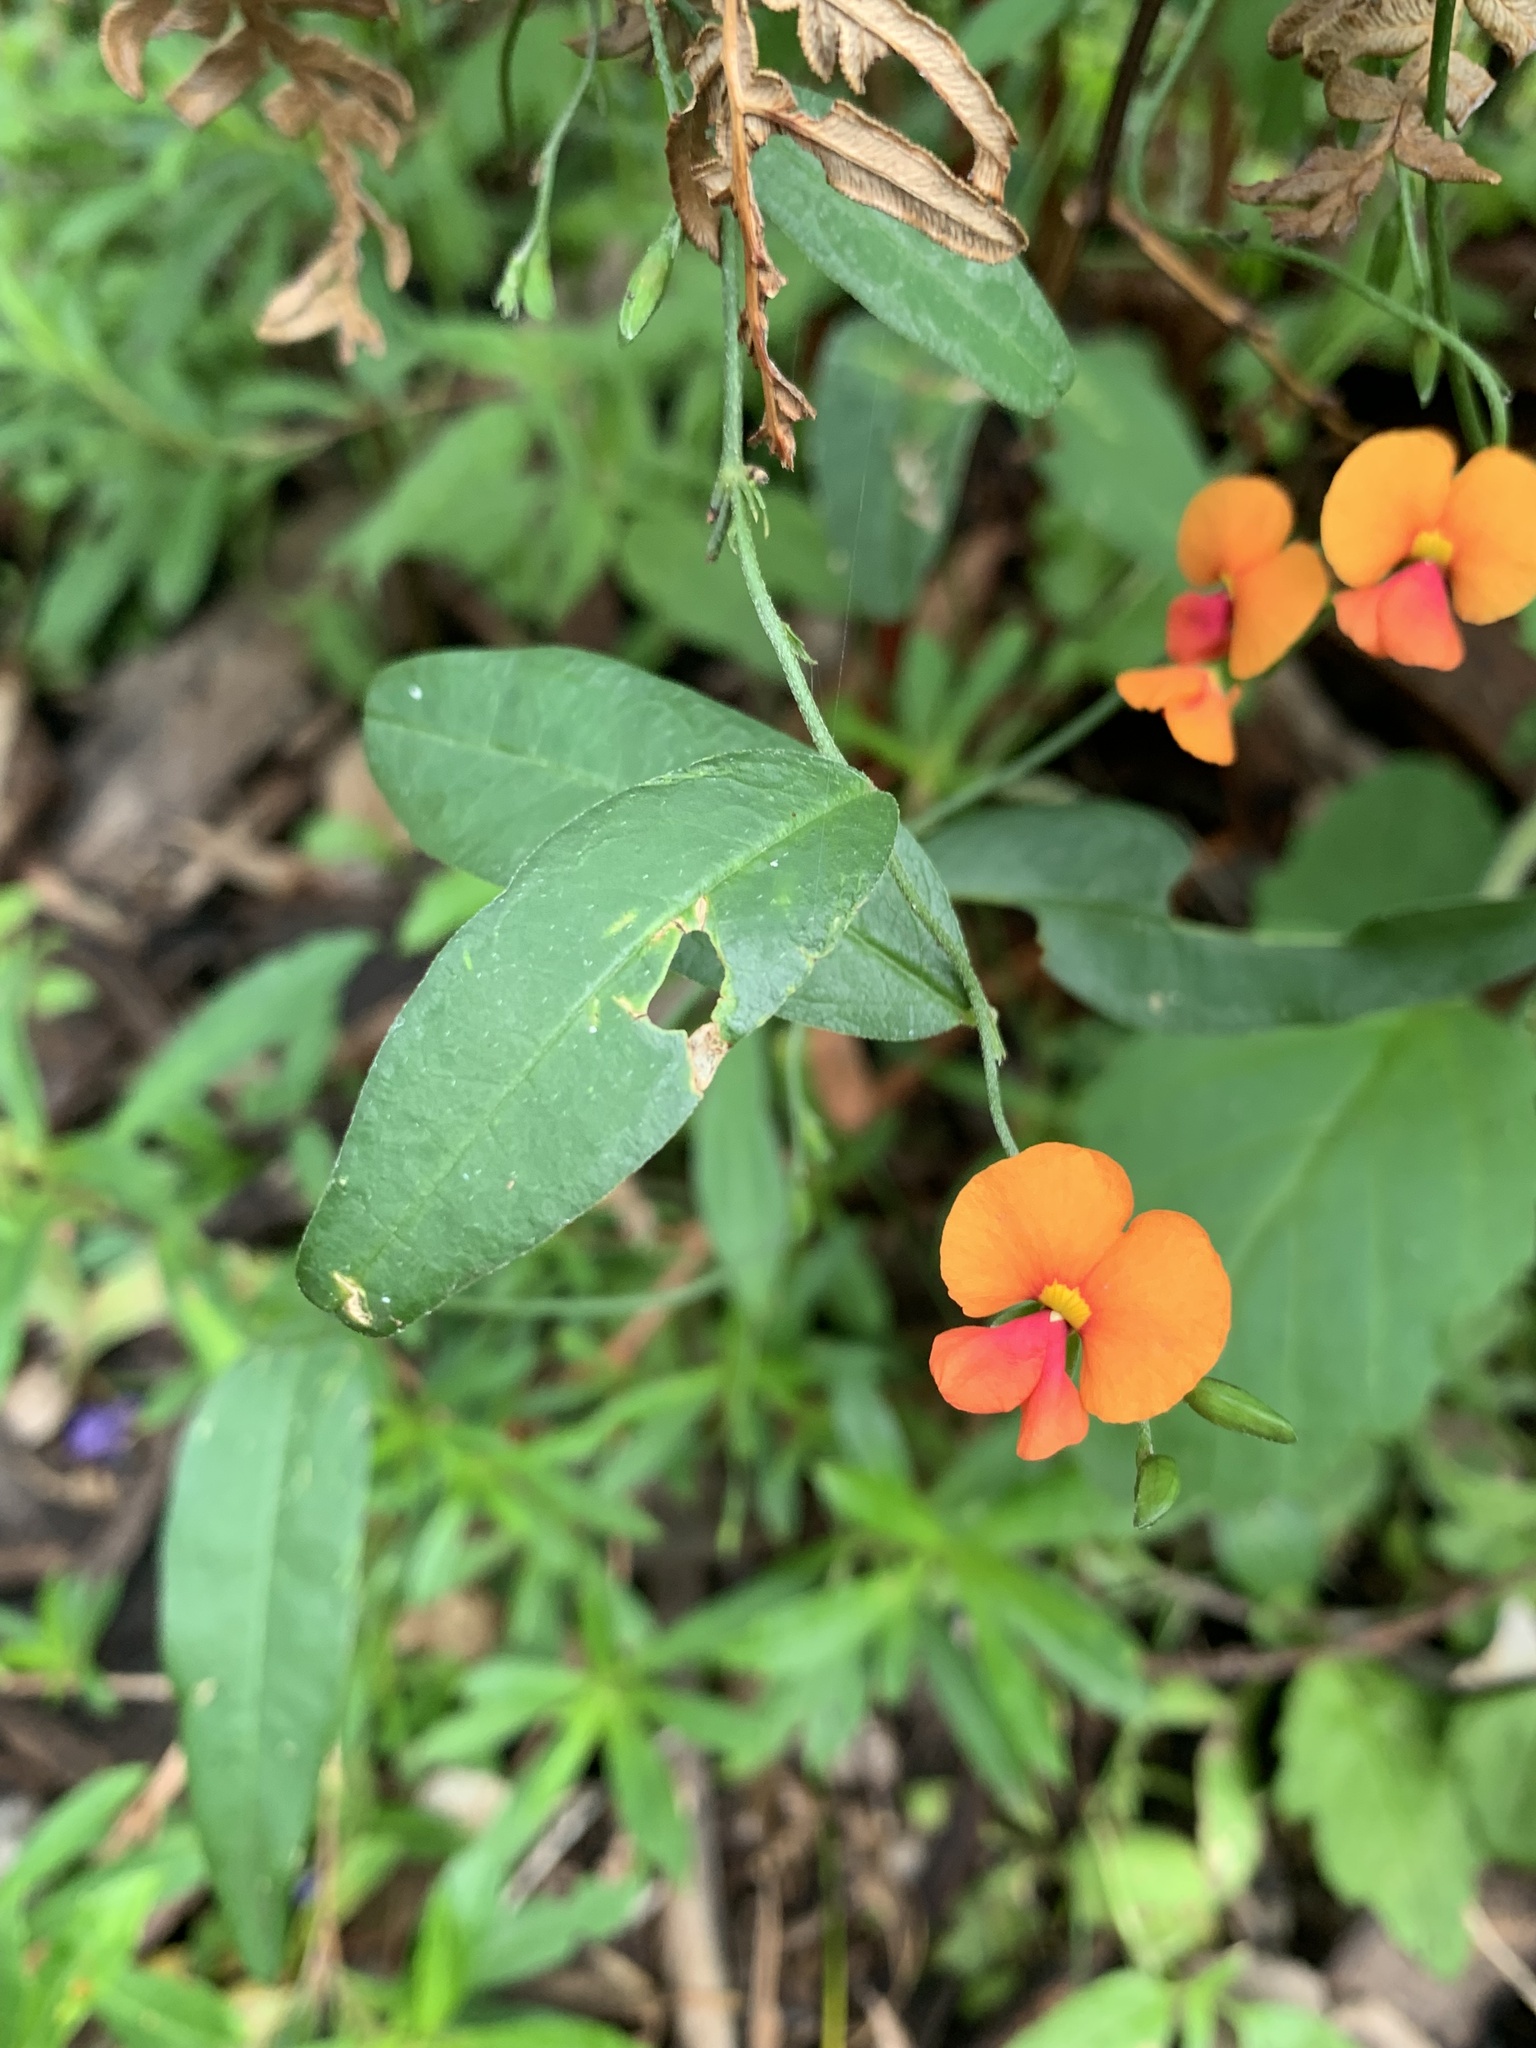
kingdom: Plantae
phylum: Tracheophyta
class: Magnoliopsida
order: Fabales
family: Fabaceae
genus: Chorizema
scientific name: Chorizema diversifolium
